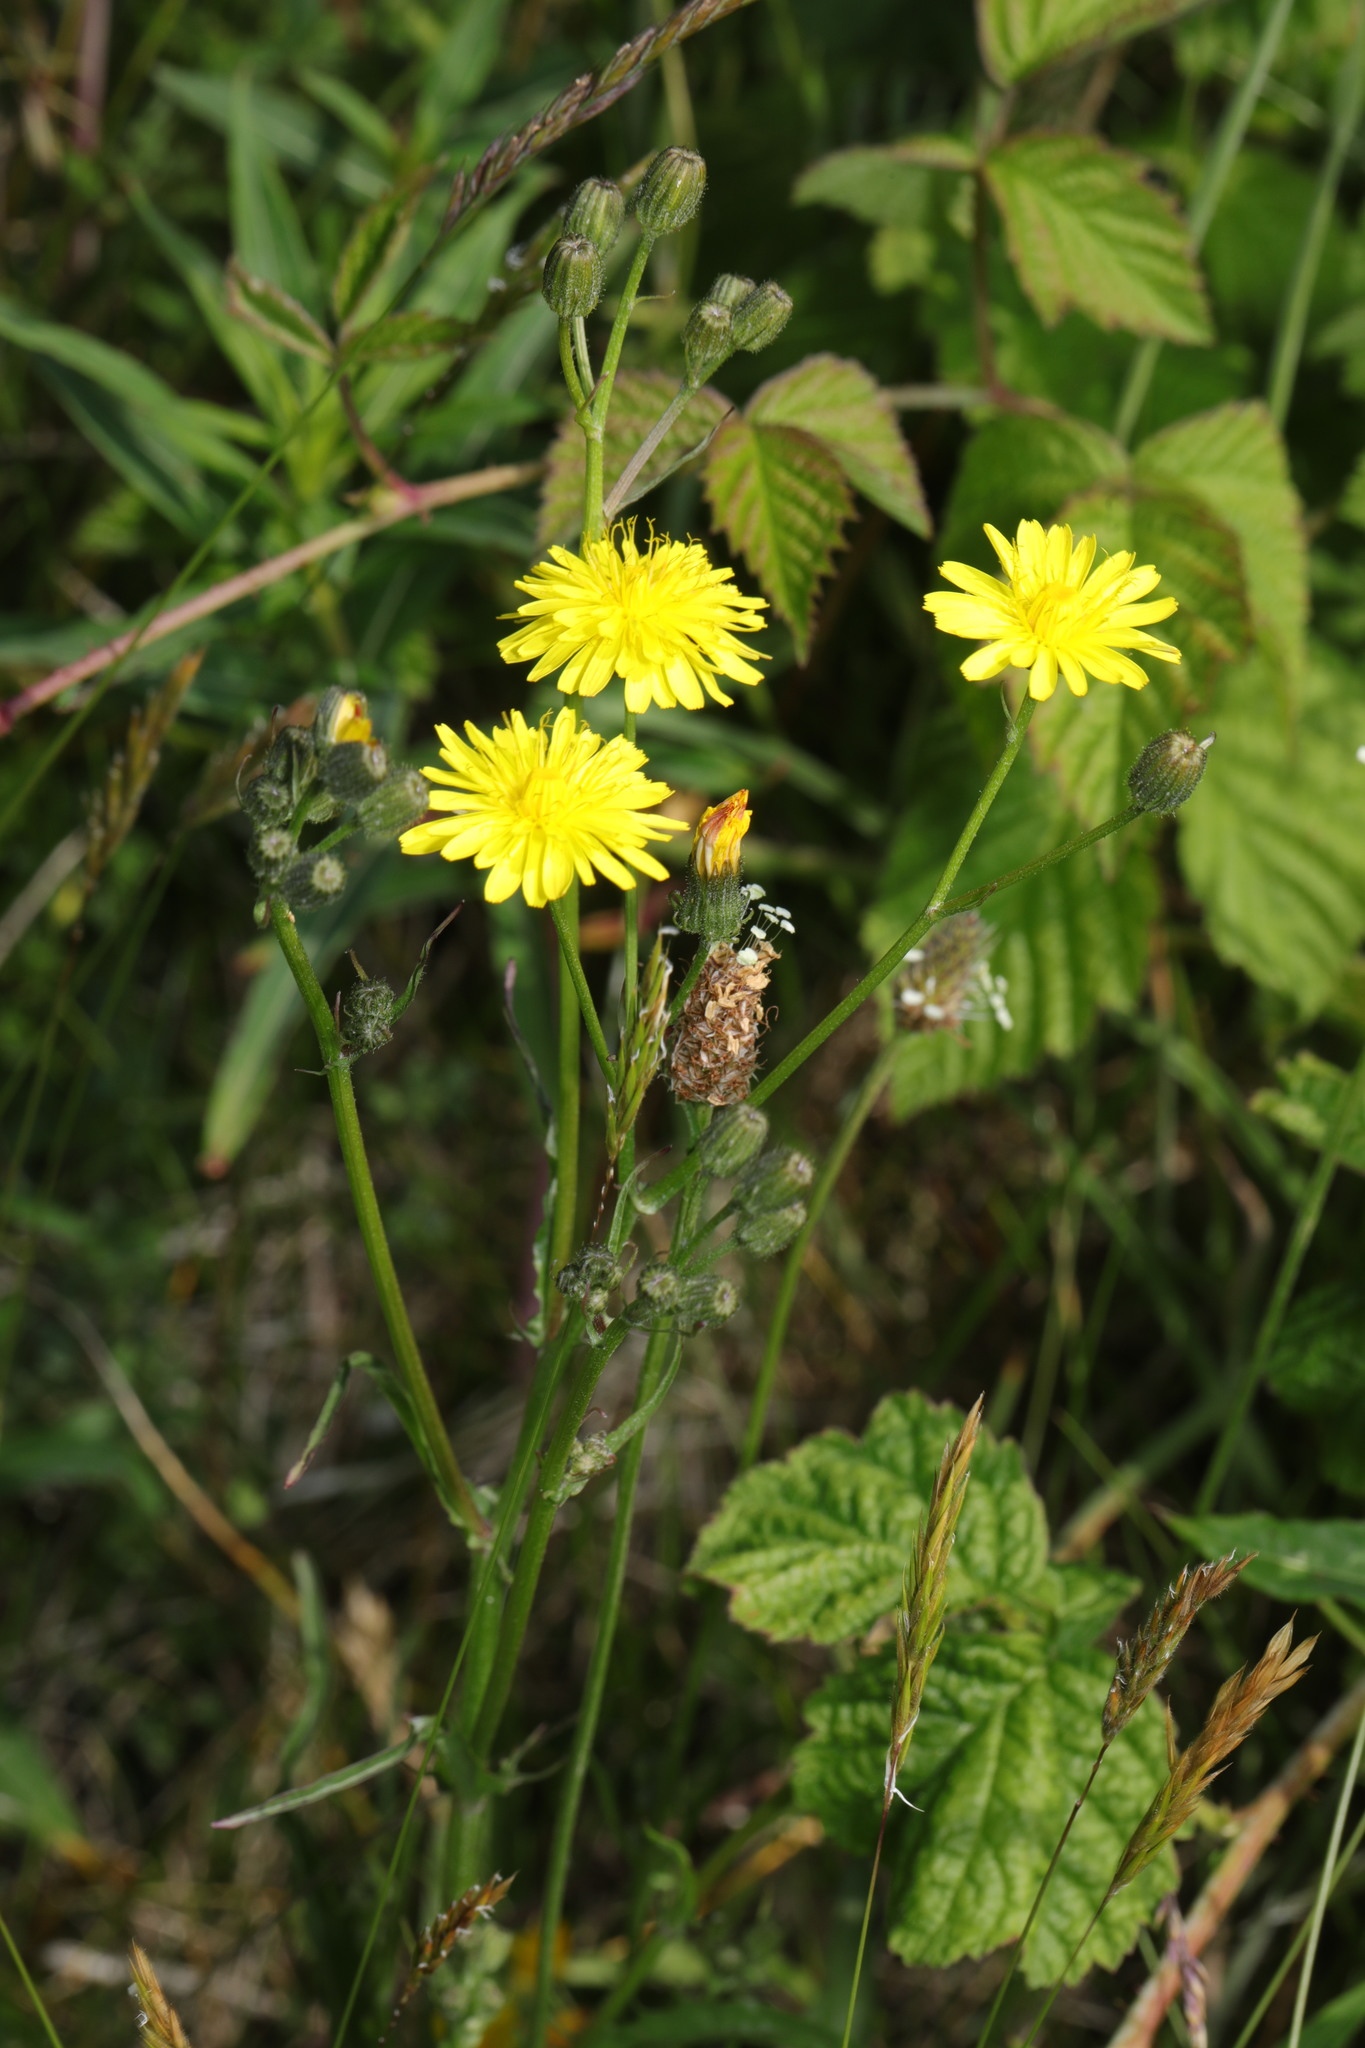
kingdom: Plantae
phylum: Tracheophyta
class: Magnoliopsida
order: Asterales
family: Asteraceae
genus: Crepis
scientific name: Crepis capillaris
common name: Smooth hawksbeard
